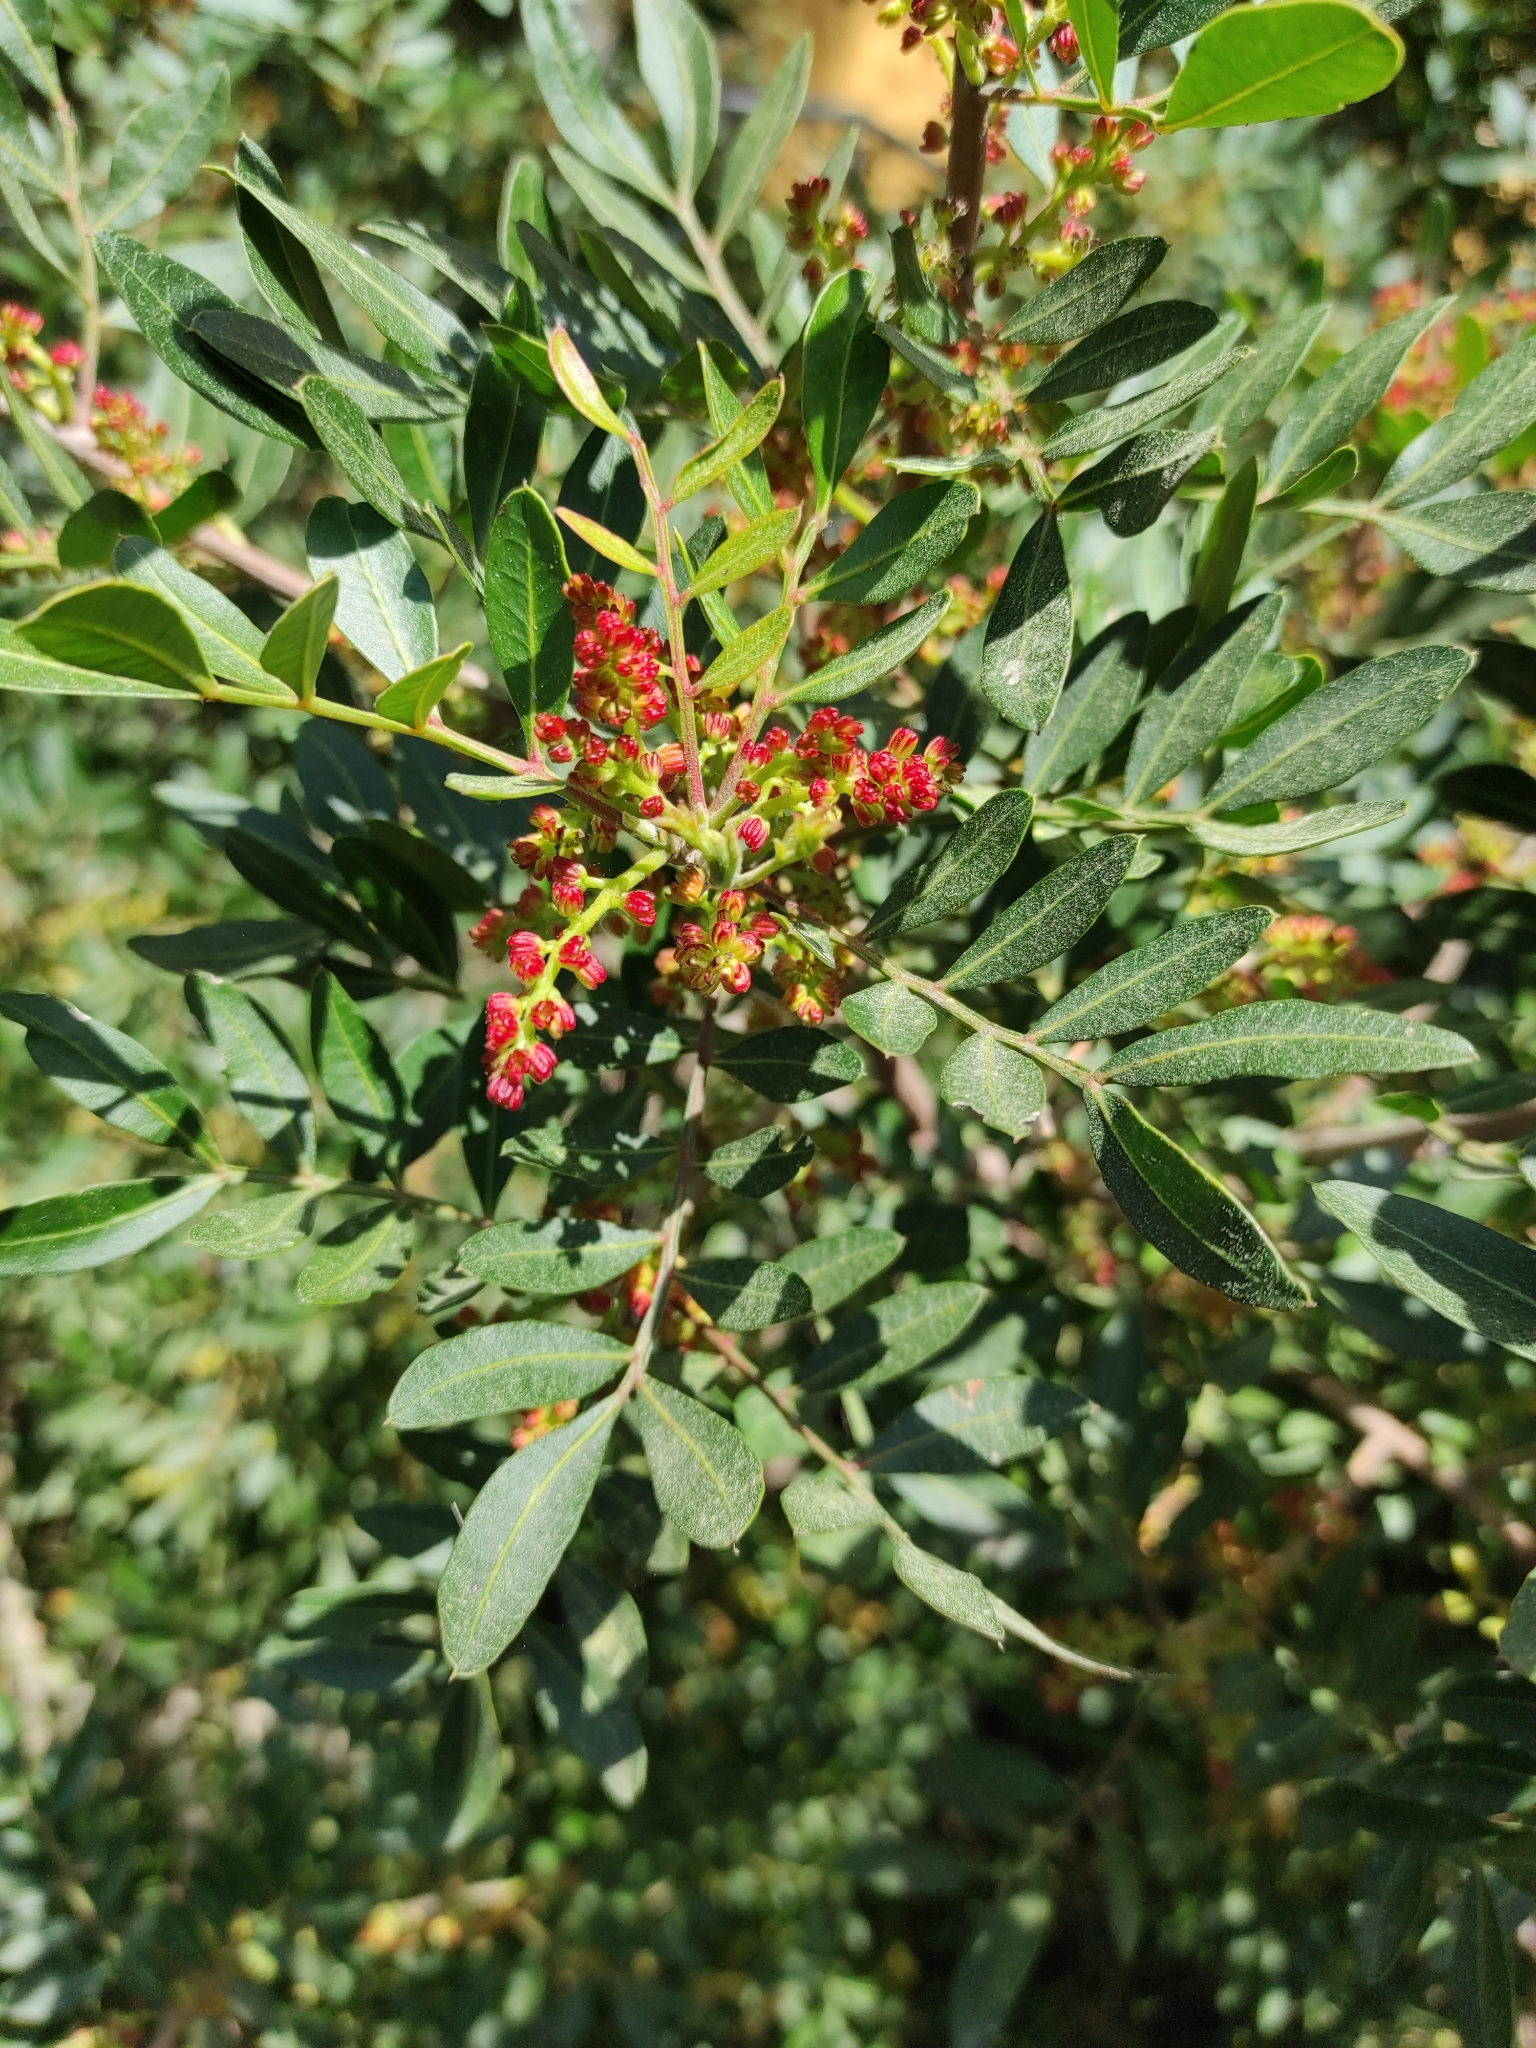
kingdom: Plantae
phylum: Tracheophyta
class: Magnoliopsida
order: Sapindales
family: Anacardiaceae
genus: Pistacia
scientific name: Pistacia lentiscus
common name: Lentisk
